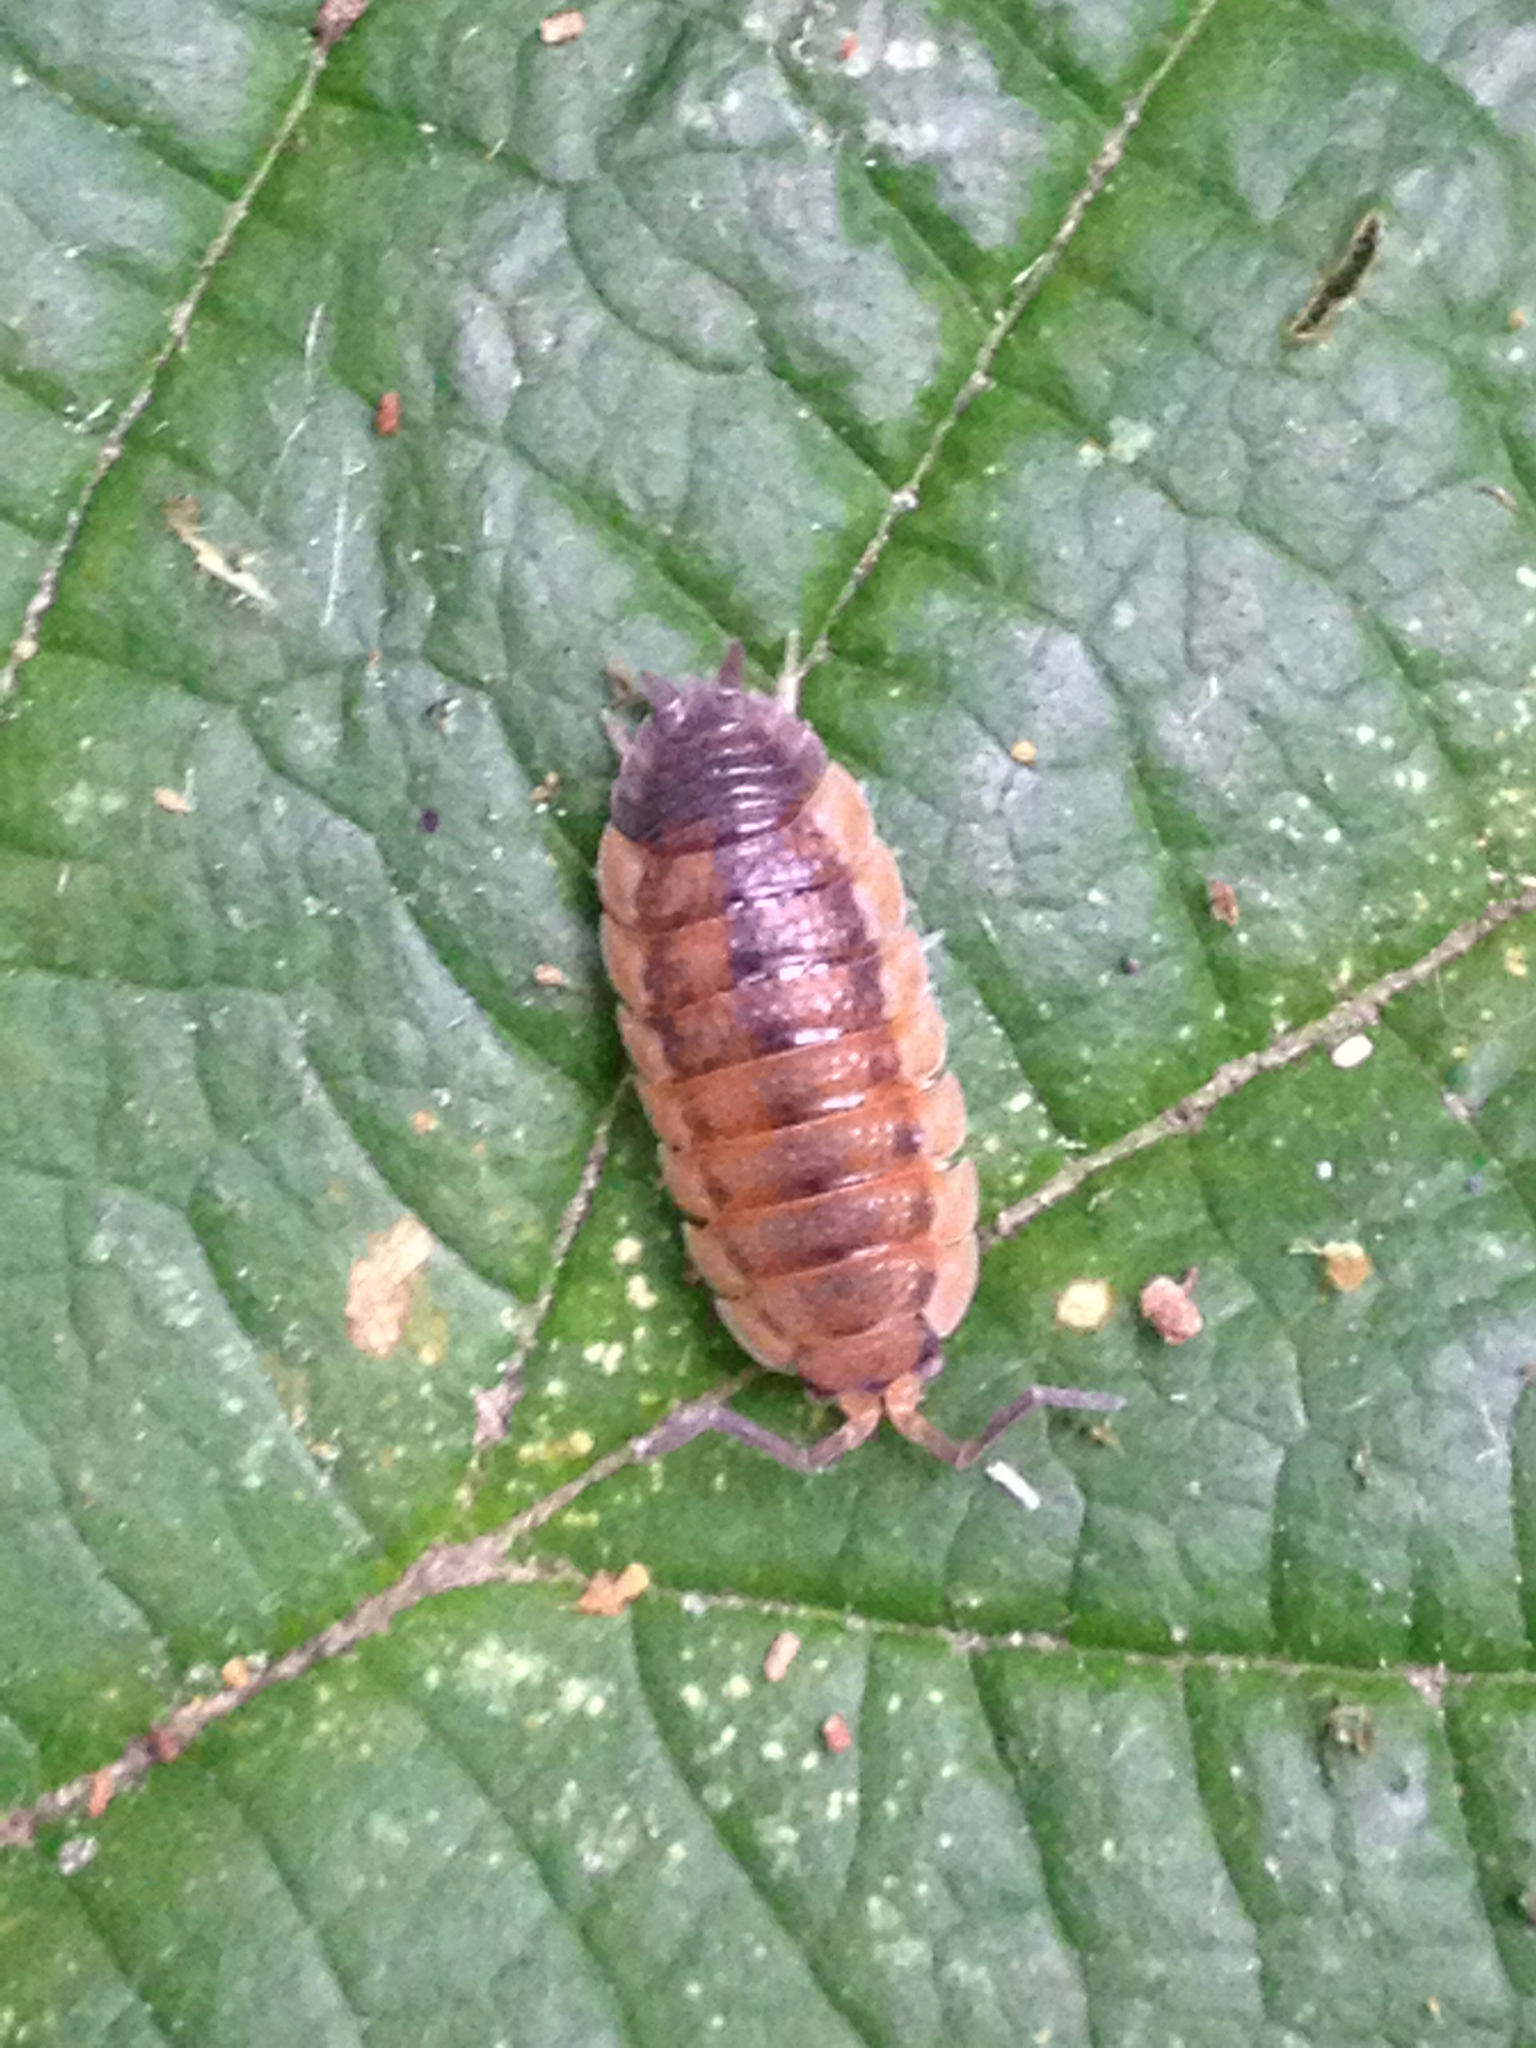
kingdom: Animalia
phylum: Arthropoda
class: Malacostraca
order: Isopoda
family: Porcellionidae
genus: Porcellio
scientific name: Porcellio scaber
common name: Common rough woodlouse
